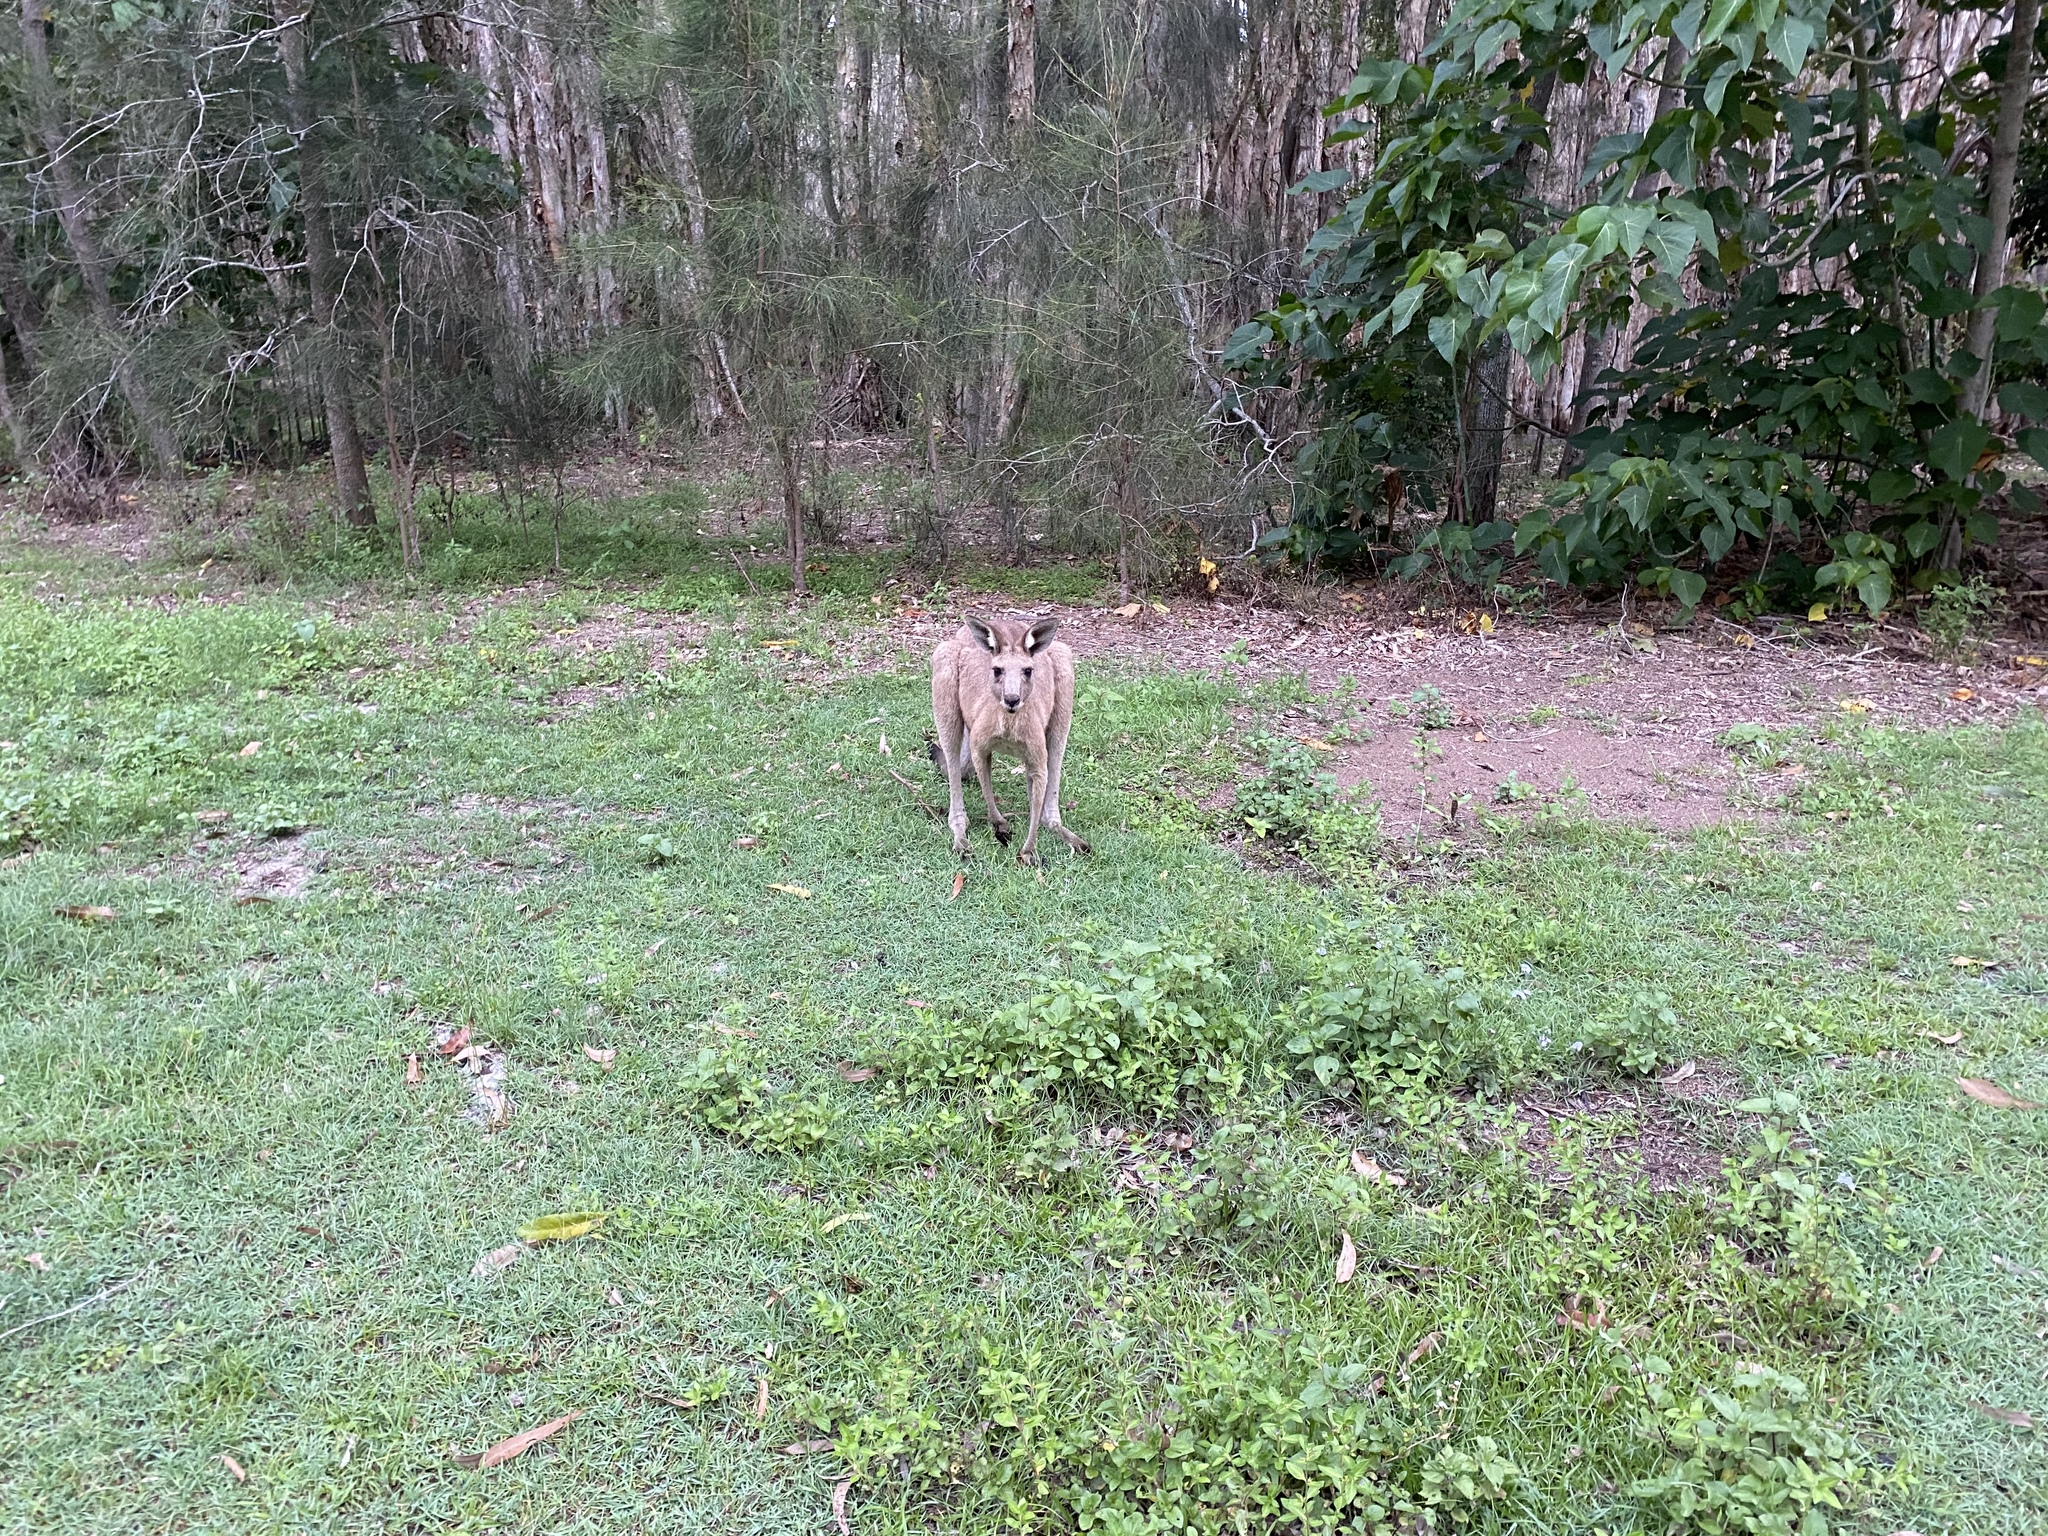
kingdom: Animalia
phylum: Chordata
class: Mammalia
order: Diprotodontia
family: Macropodidae
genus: Macropus
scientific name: Macropus giganteus
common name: Eastern grey kangaroo
